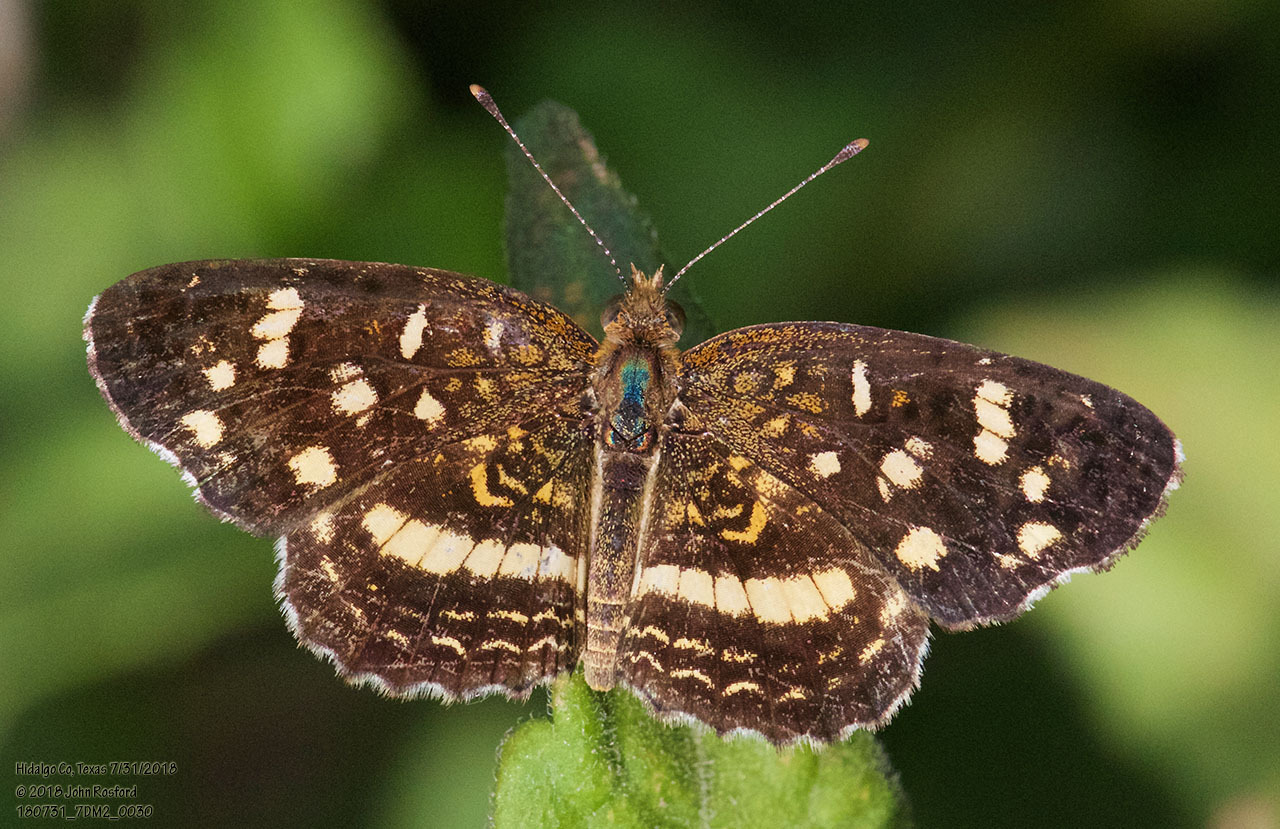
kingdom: Animalia
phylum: Arthropoda
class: Insecta
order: Lepidoptera
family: Nymphalidae
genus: Anthanassa
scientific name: Anthanassa tulcis
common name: Pale-banded crescent
